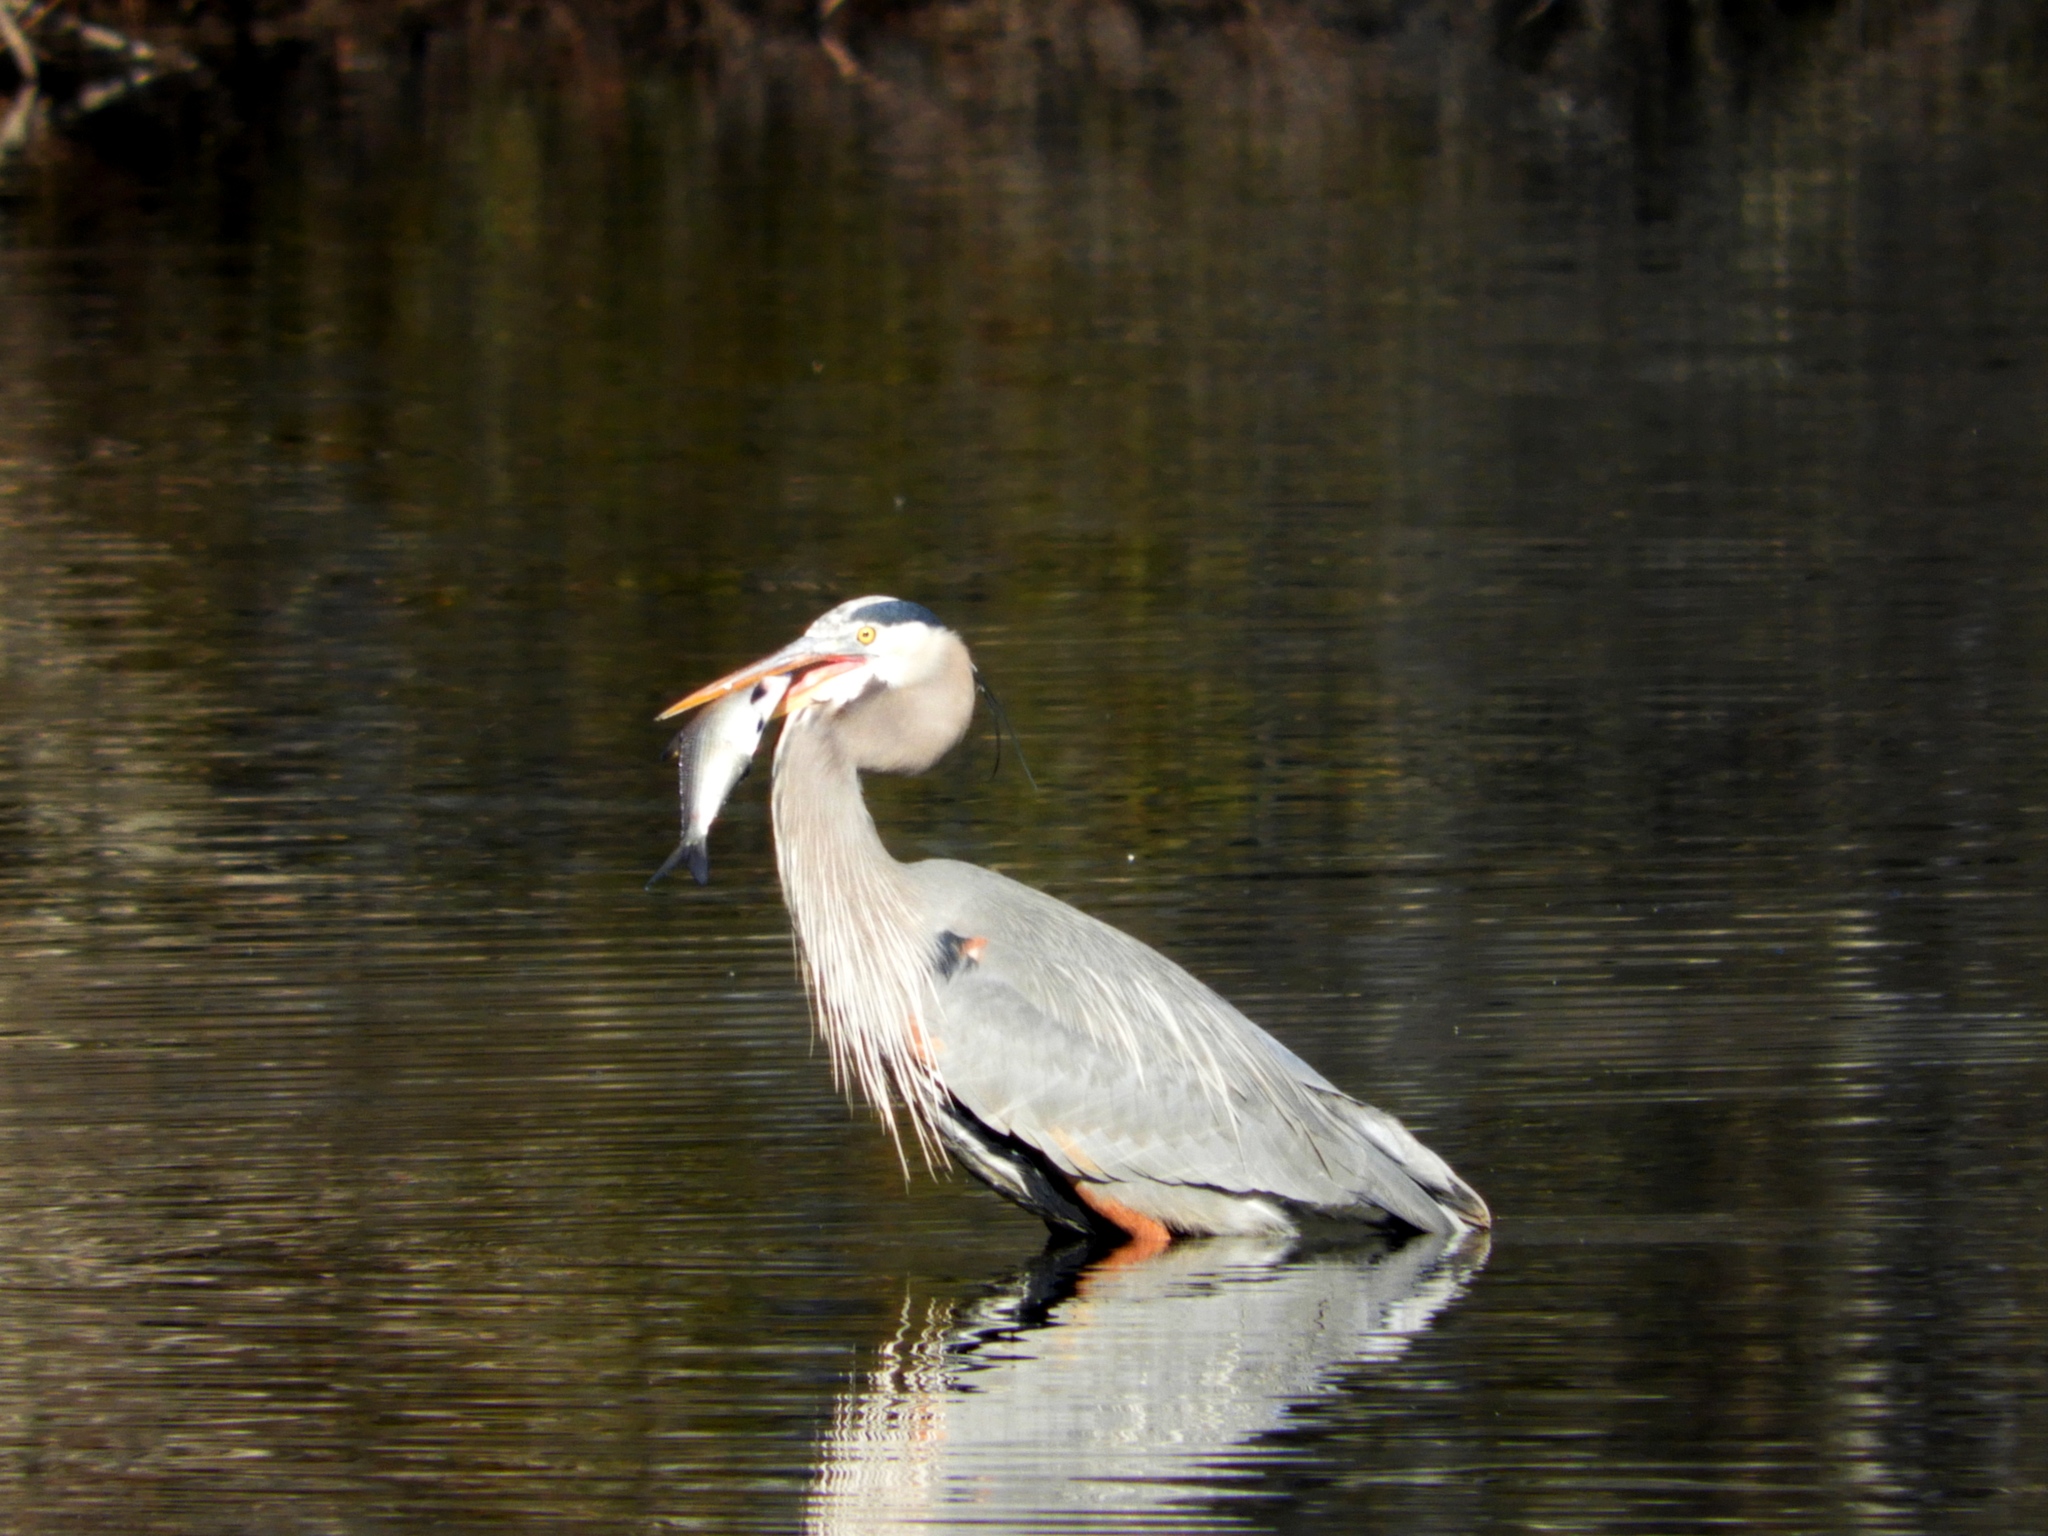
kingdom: Animalia
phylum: Chordata
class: Aves
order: Pelecaniformes
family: Ardeidae
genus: Ardea
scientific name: Ardea herodias
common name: Great blue heron
